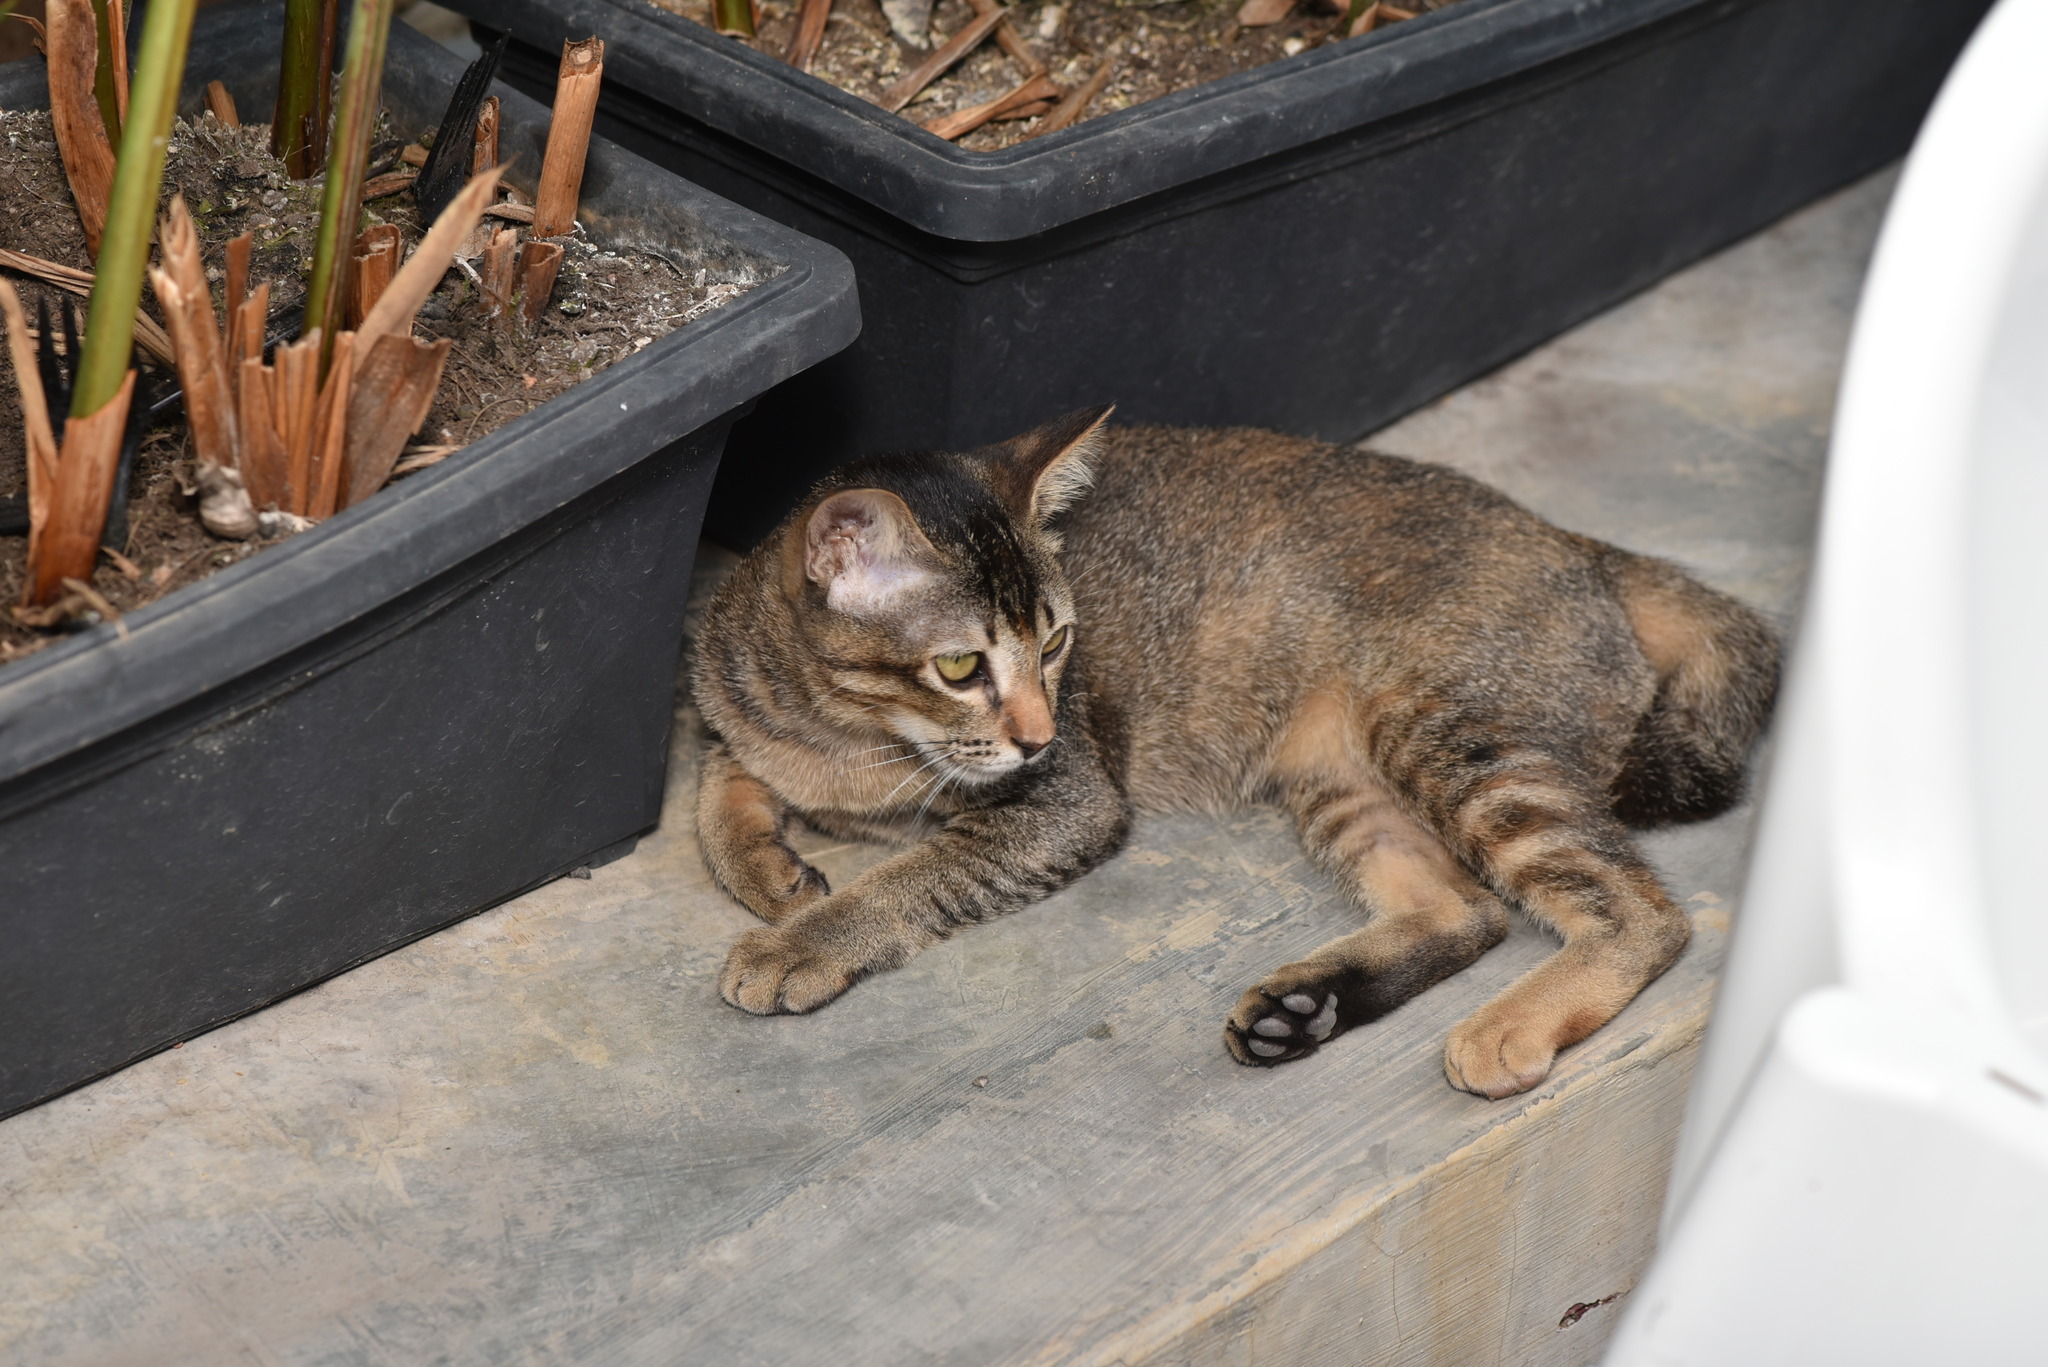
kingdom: Animalia
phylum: Chordata
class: Mammalia
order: Carnivora
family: Felidae
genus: Felis
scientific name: Felis catus
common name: Domestic cat
